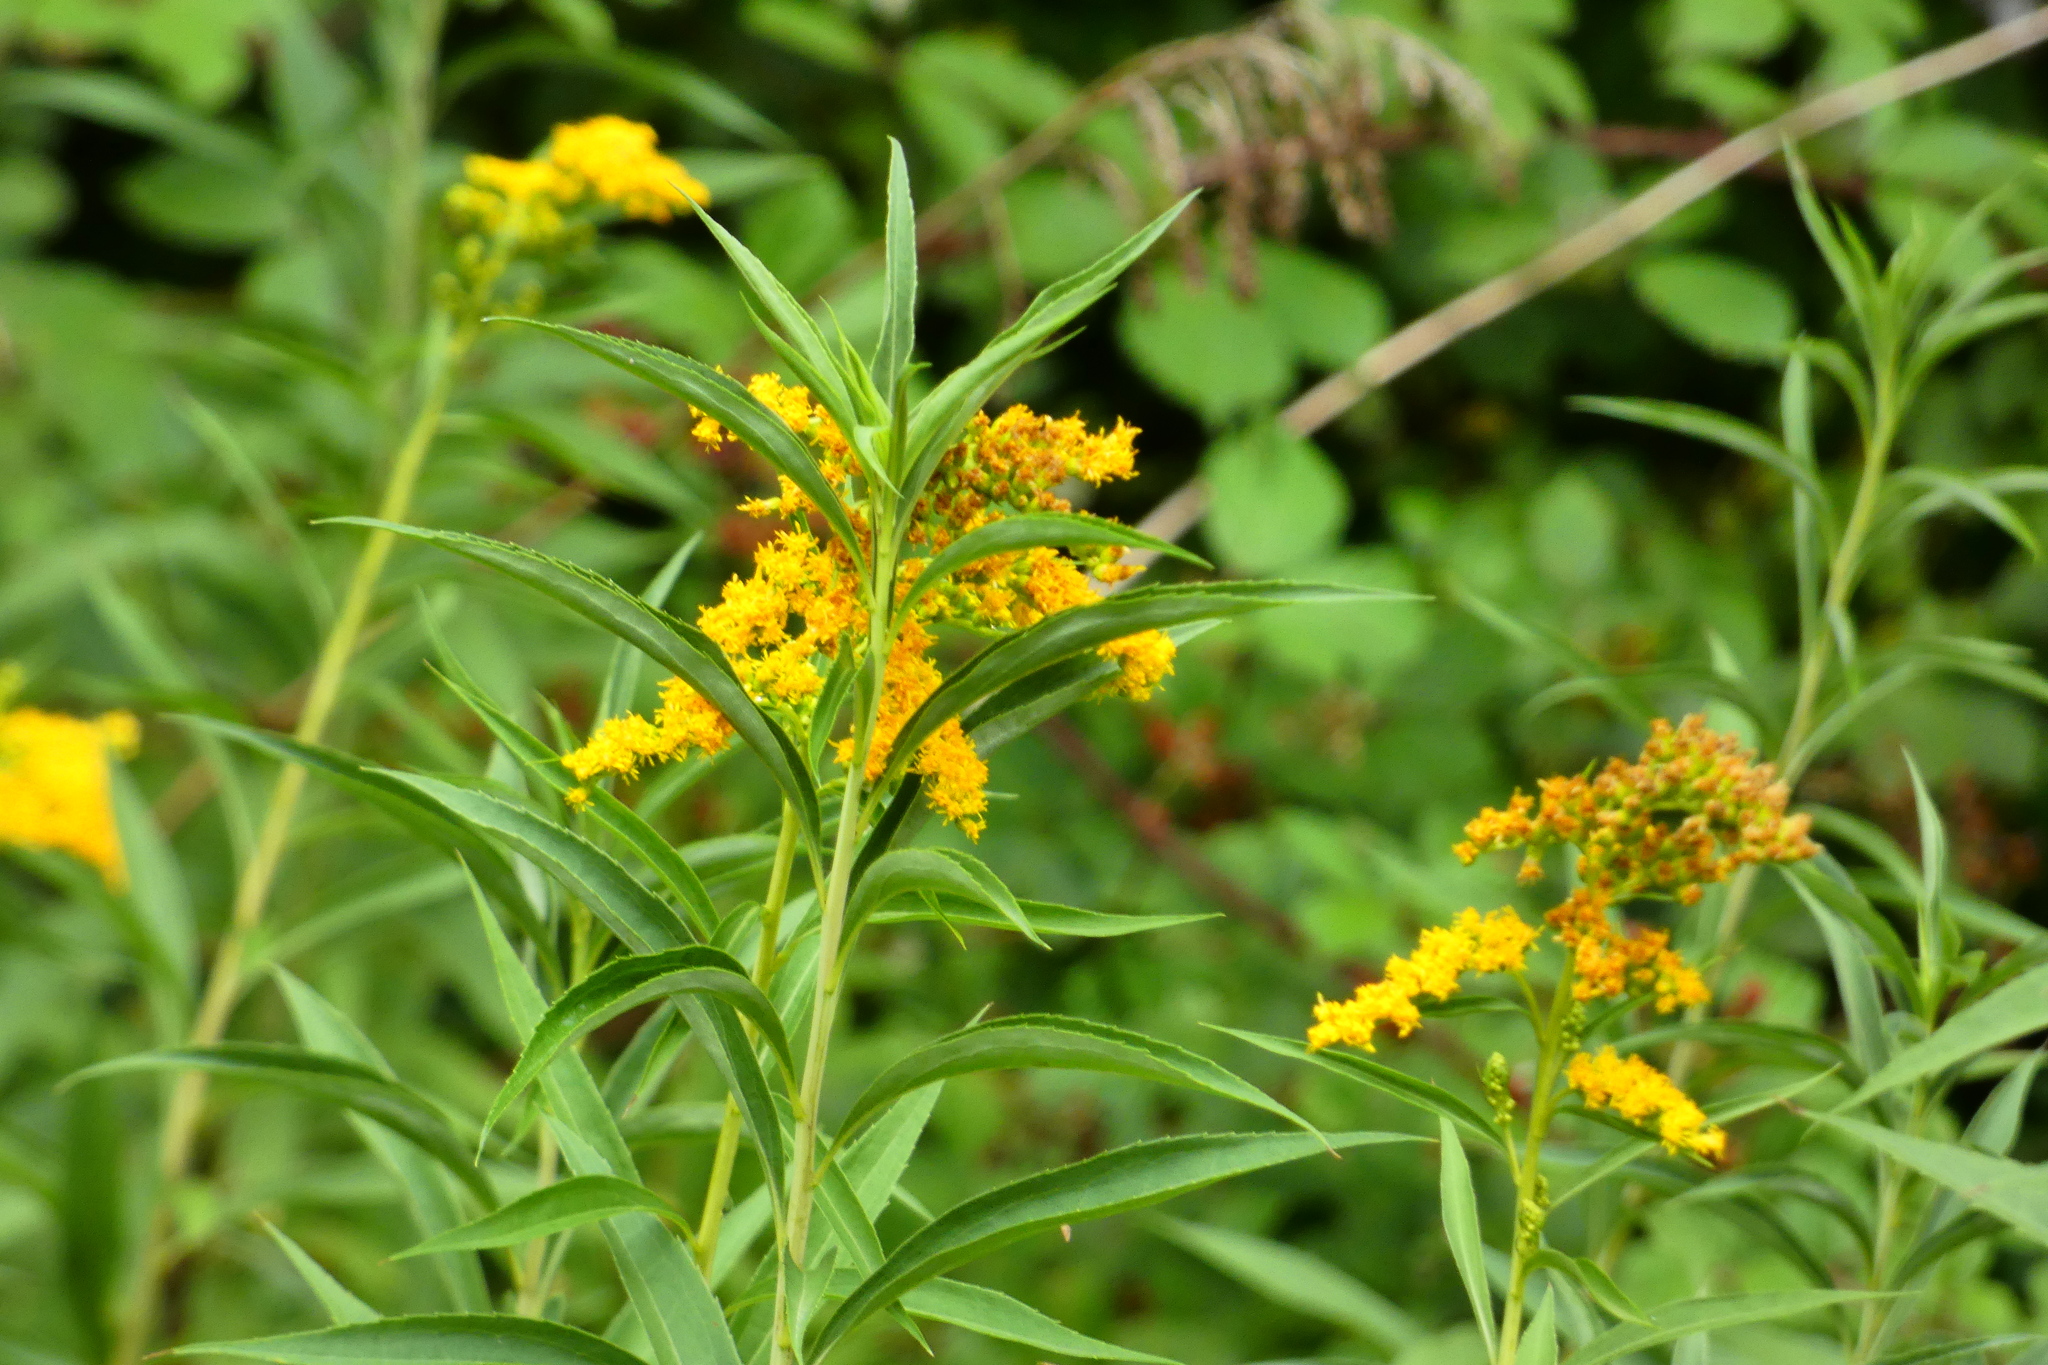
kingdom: Plantae
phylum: Tracheophyta
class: Magnoliopsida
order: Asterales
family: Asteraceae
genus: Solidago
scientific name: Solidago gigantea
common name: Giant goldenrod
